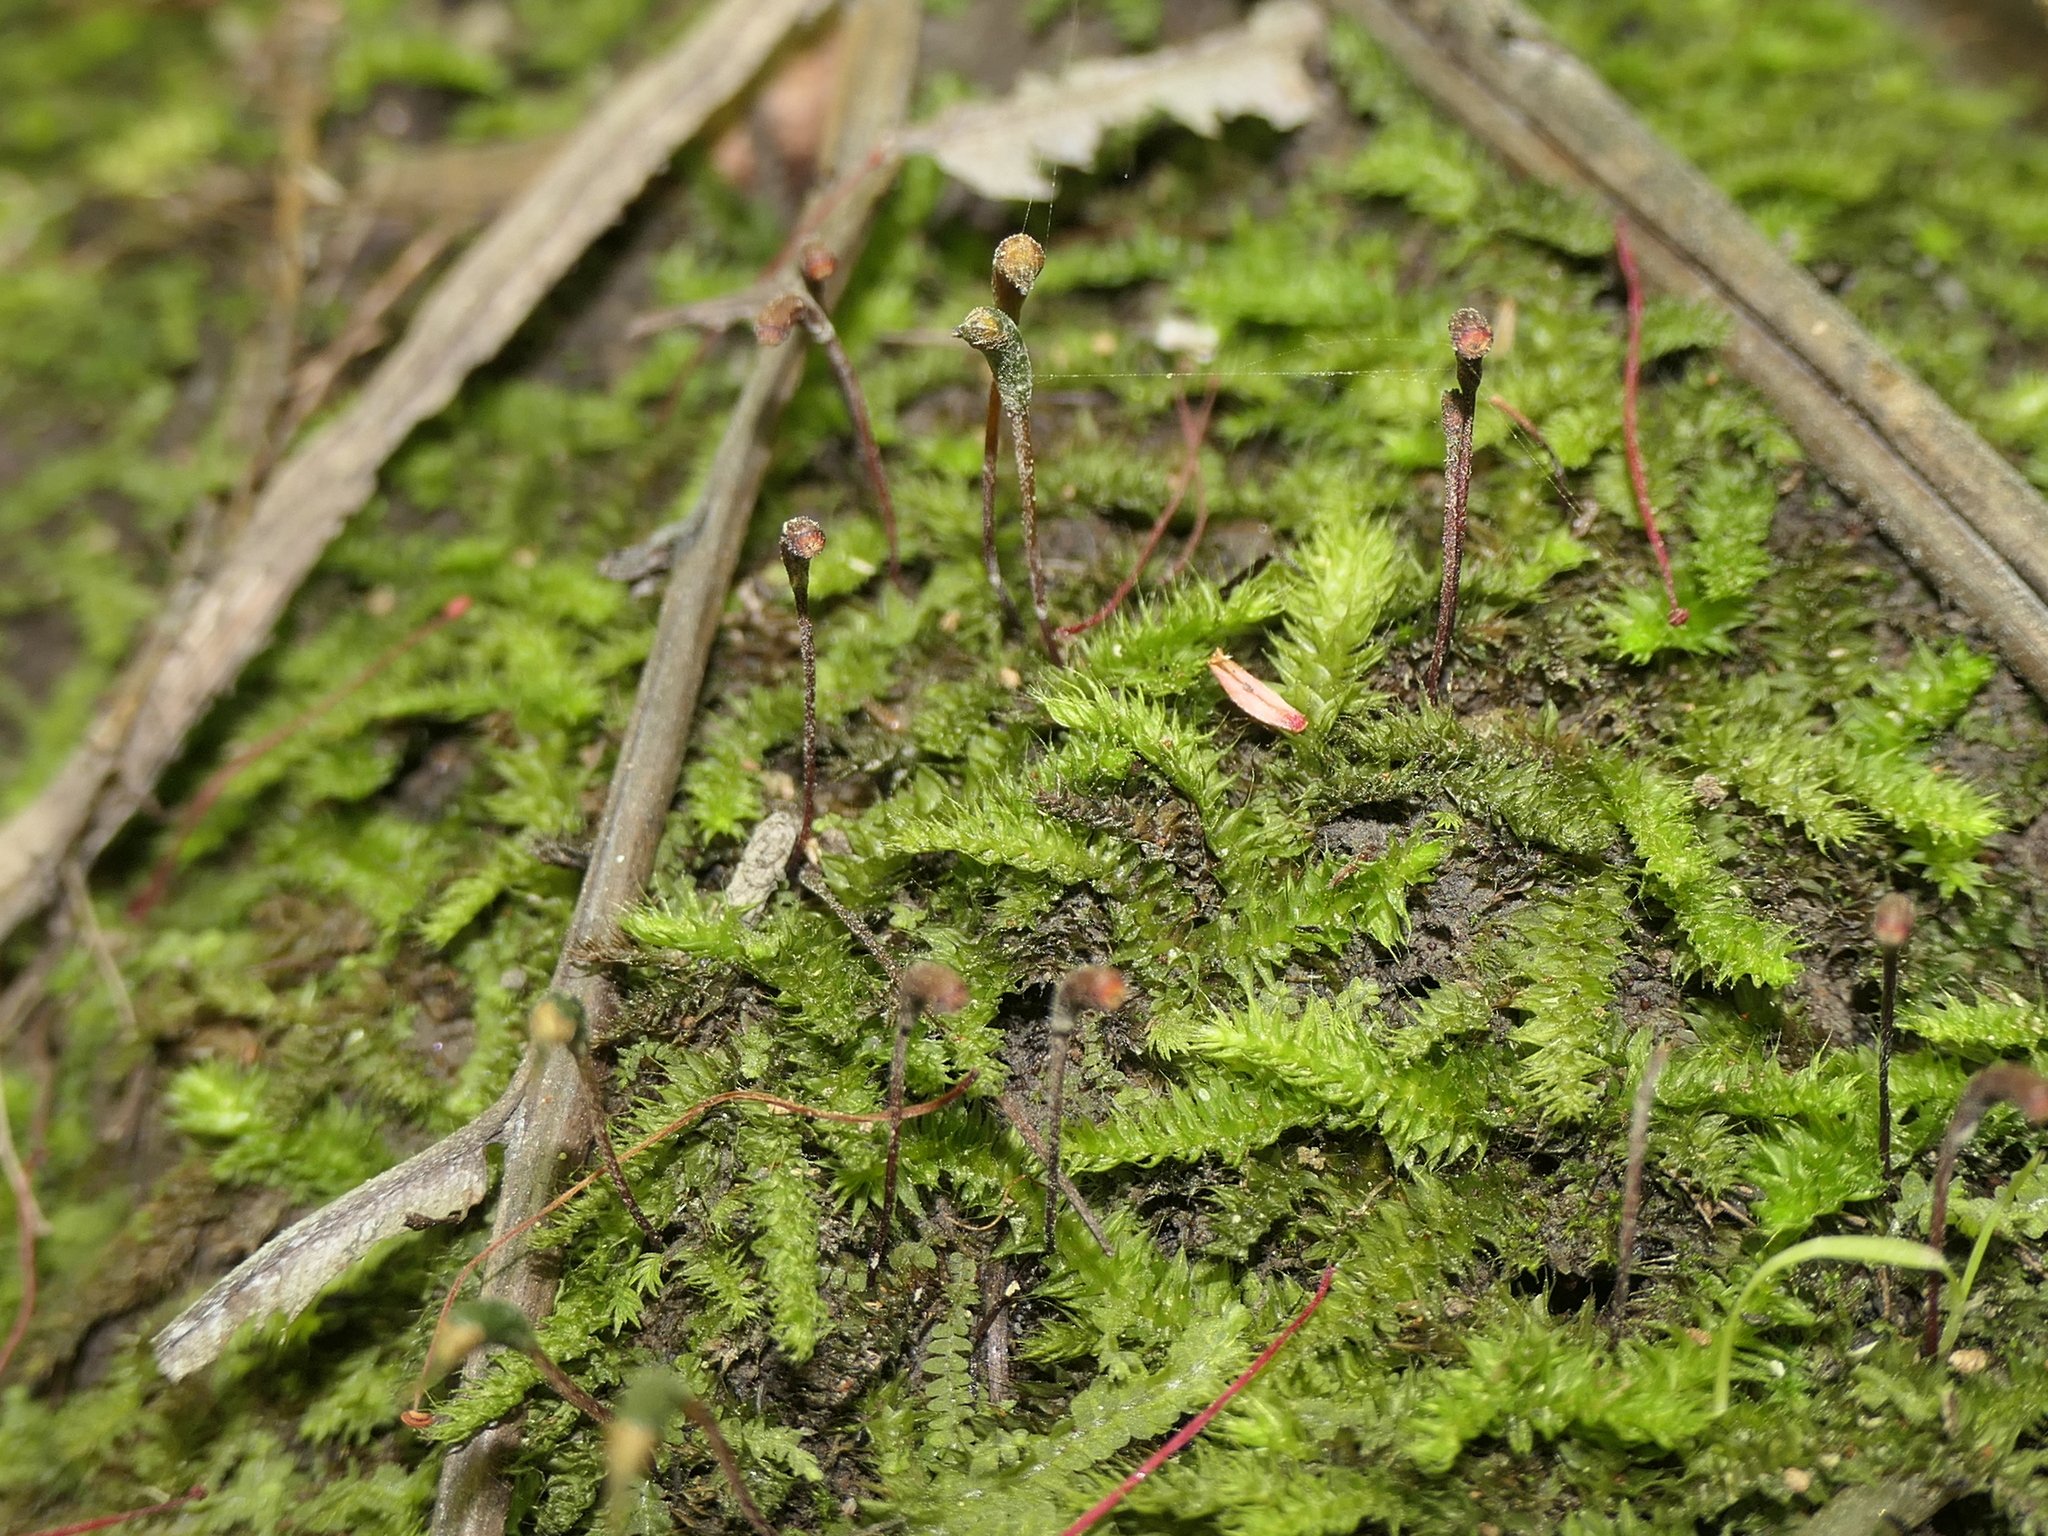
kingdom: Plantae
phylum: Bryophyta
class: Bryopsida
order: Hypnodendrales
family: Racopilaceae
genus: Racopilum
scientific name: Racopilum cuspidigerum
